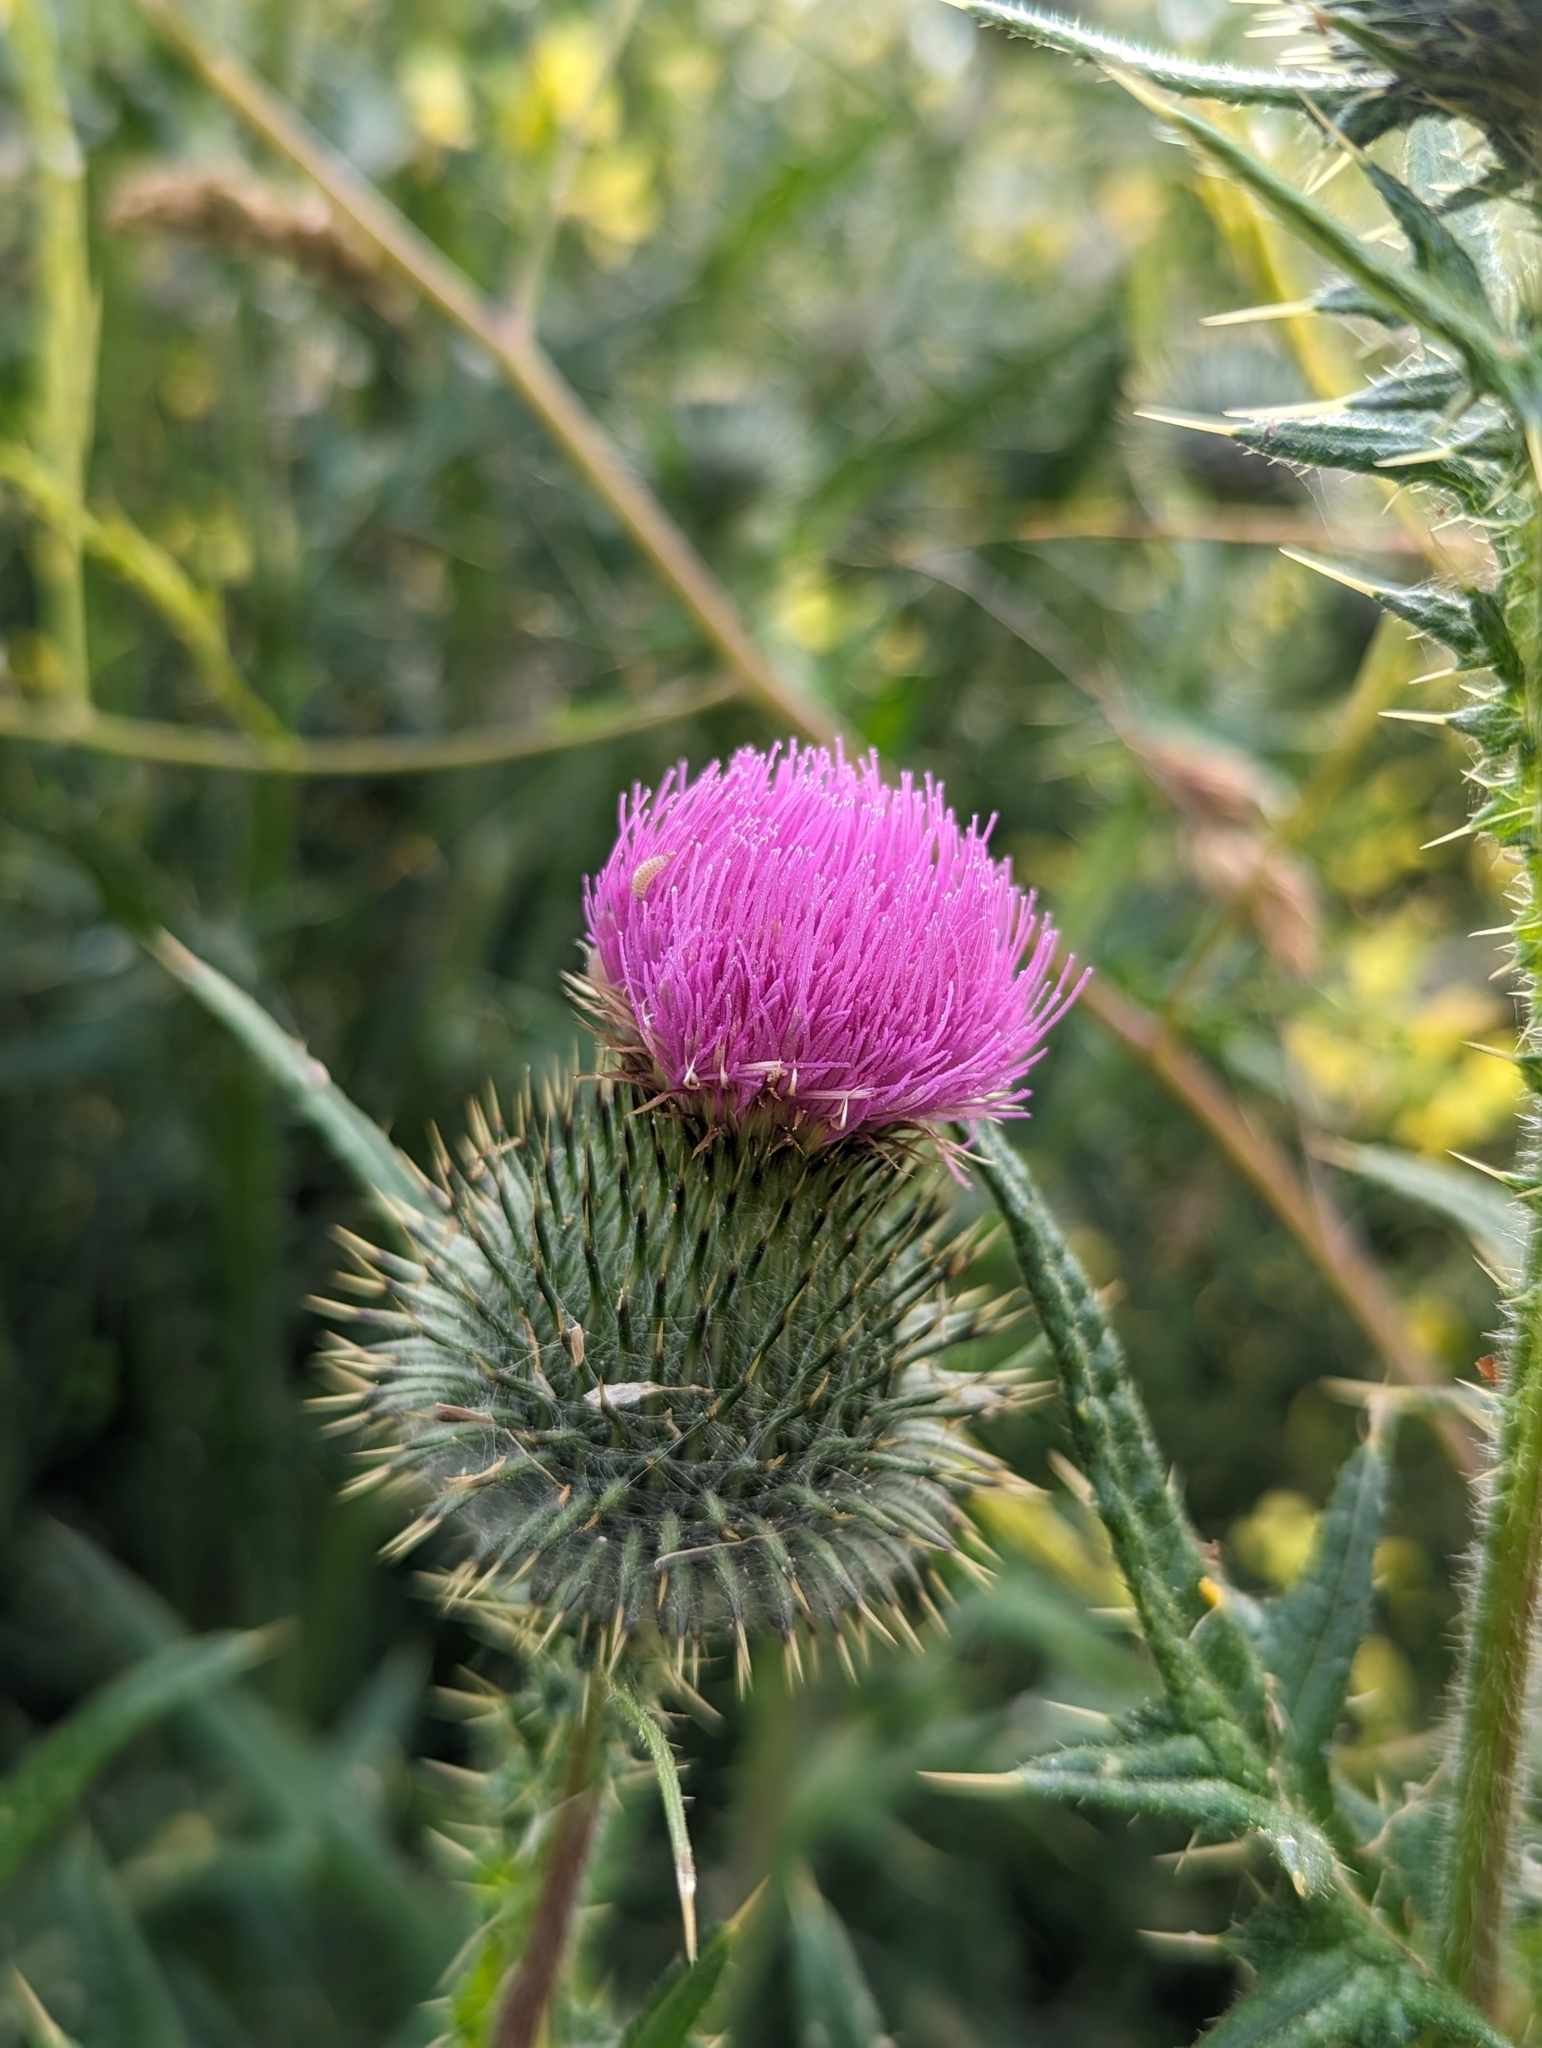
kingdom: Plantae
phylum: Tracheophyta
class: Magnoliopsida
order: Asterales
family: Asteraceae
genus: Cirsium
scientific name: Cirsium vulgare
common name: Bull thistle
